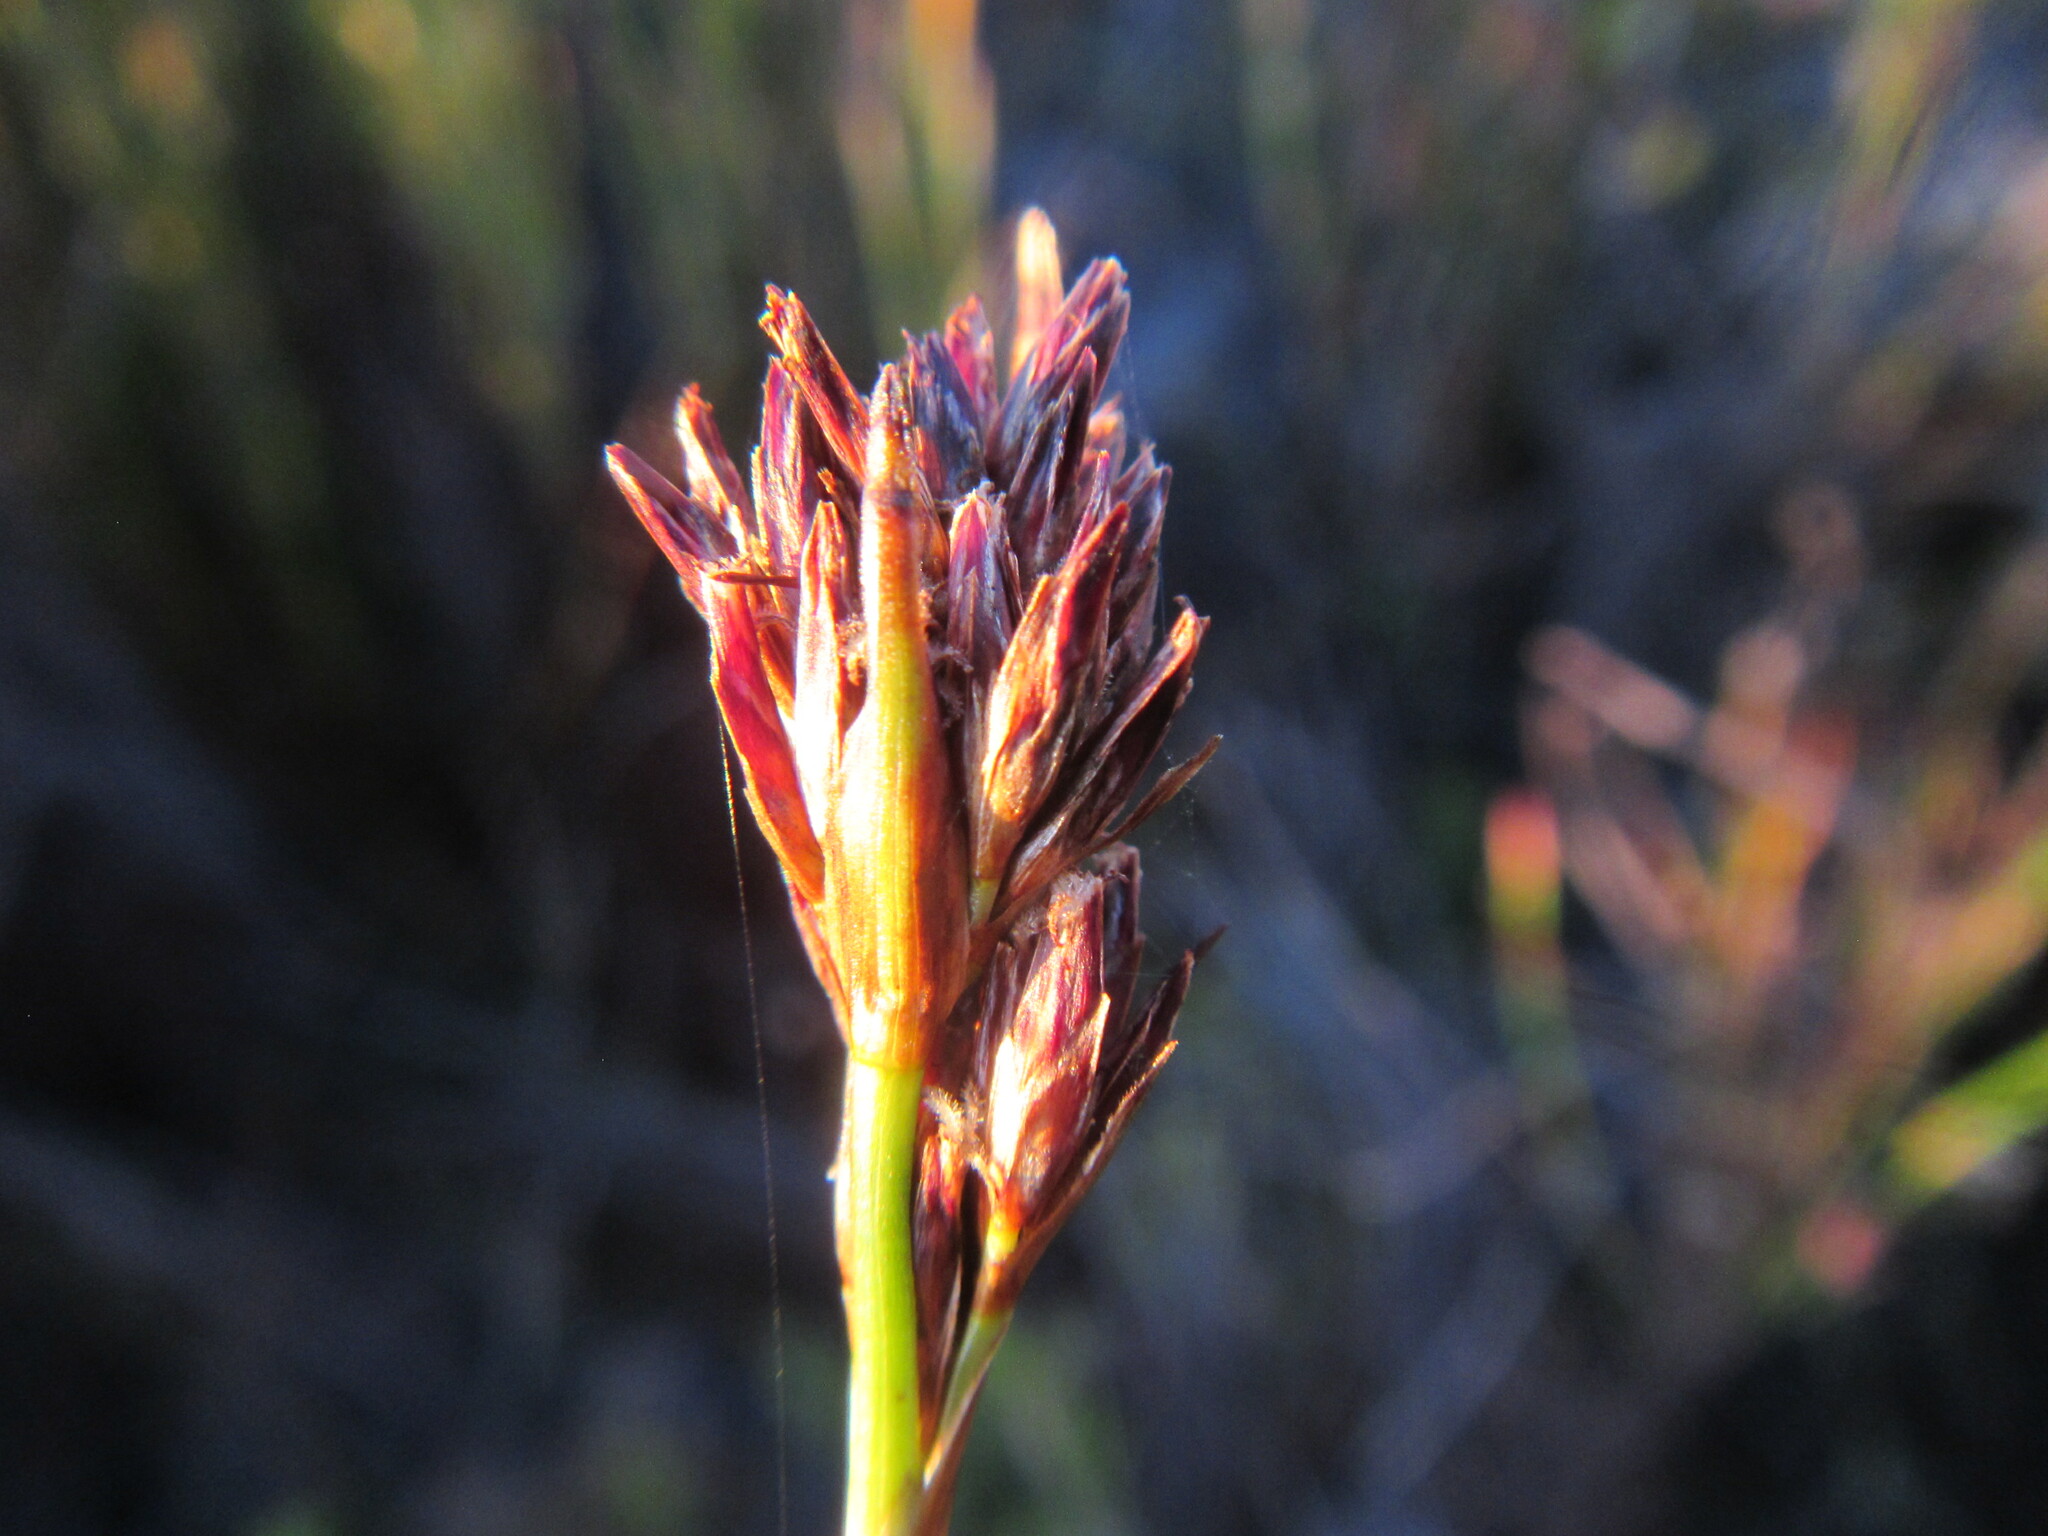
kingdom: Plantae
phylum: Tracheophyta
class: Liliopsida
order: Poales
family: Cyperaceae
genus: Schoenus
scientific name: Schoenus auritus
